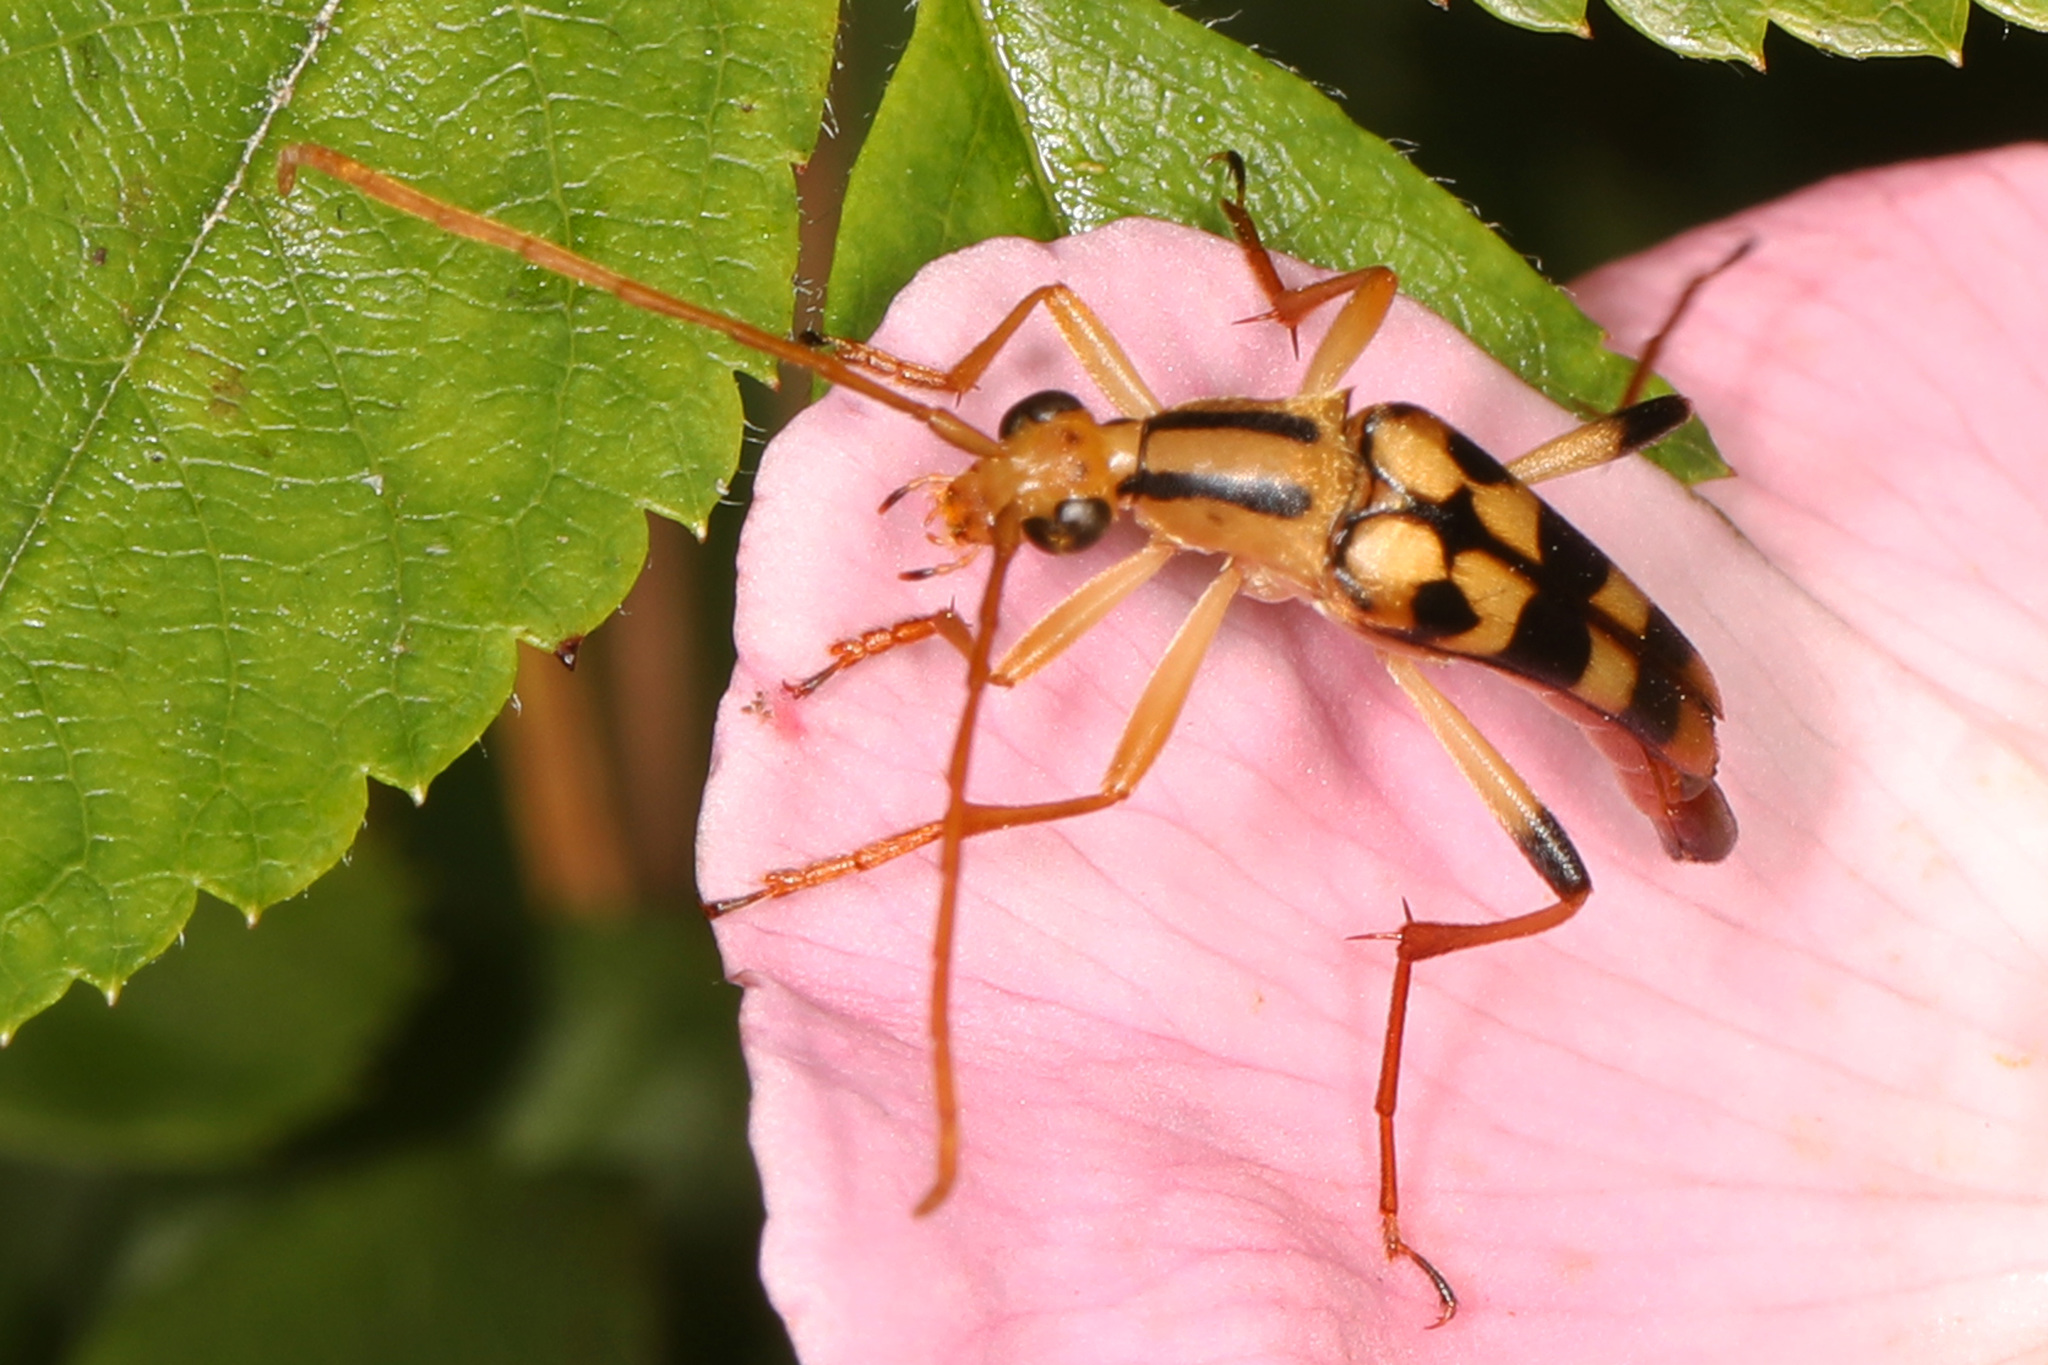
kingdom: Animalia
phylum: Arthropoda
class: Insecta
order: Coleoptera
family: Cerambycidae
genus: Strangalia
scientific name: Strangalia luteicornis
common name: Yellow-horned flower longhorn beetle
